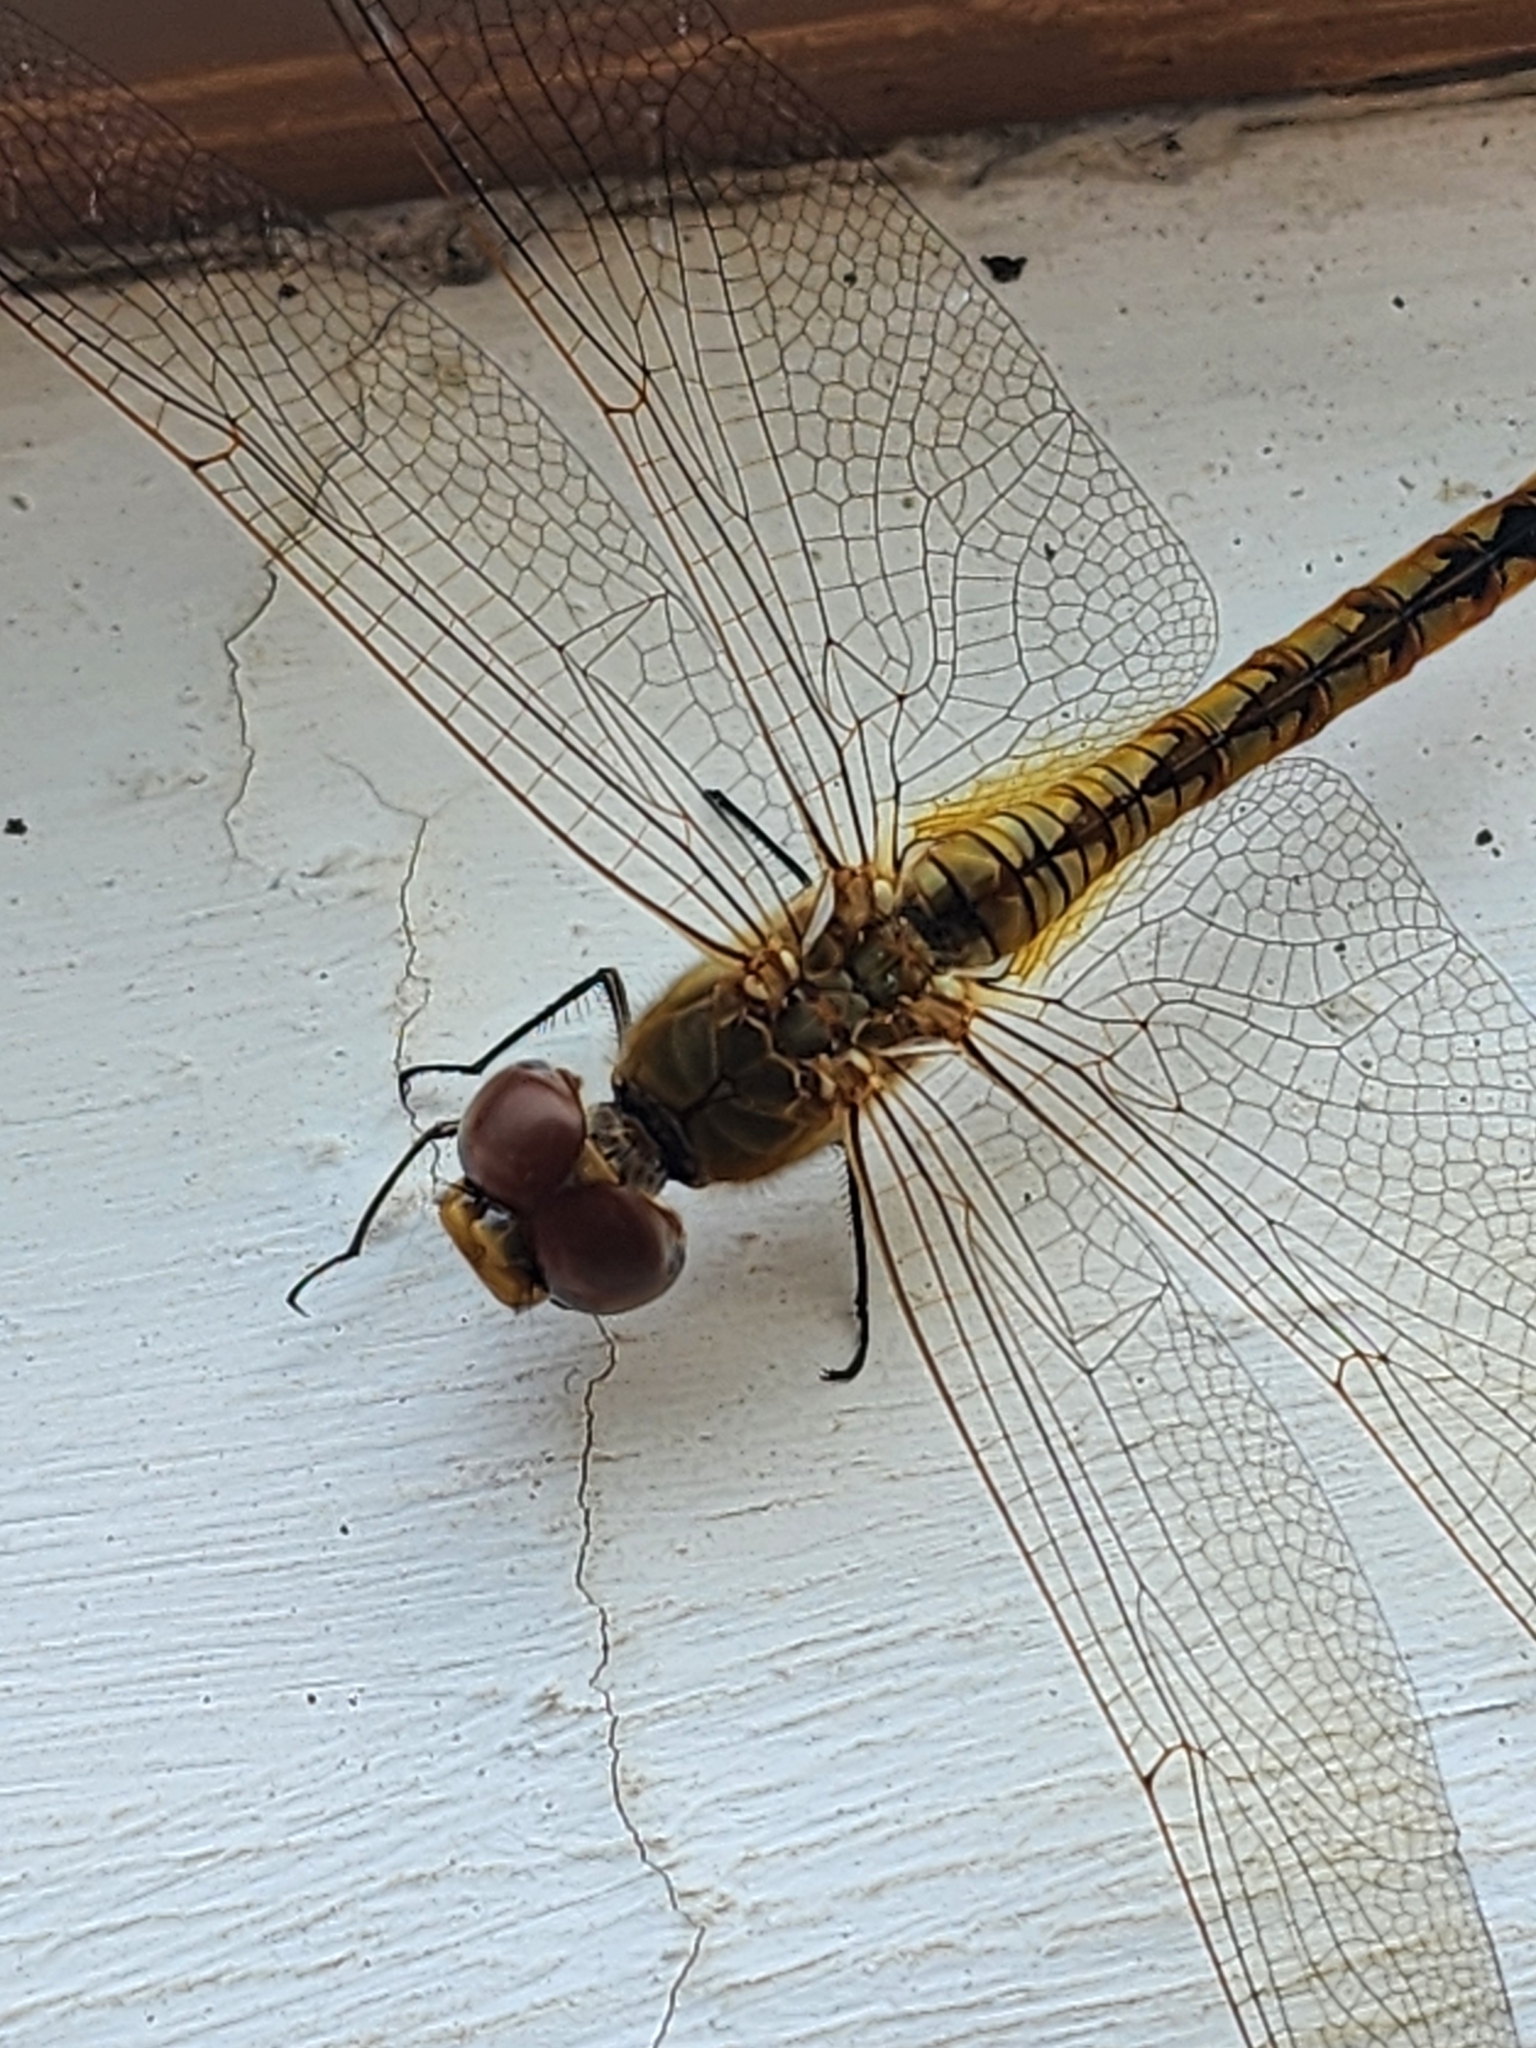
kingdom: Animalia
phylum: Arthropoda
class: Insecta
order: Odonata
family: Libellulidae
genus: Pantala
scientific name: Pantala flavescens
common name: Wandering glider
